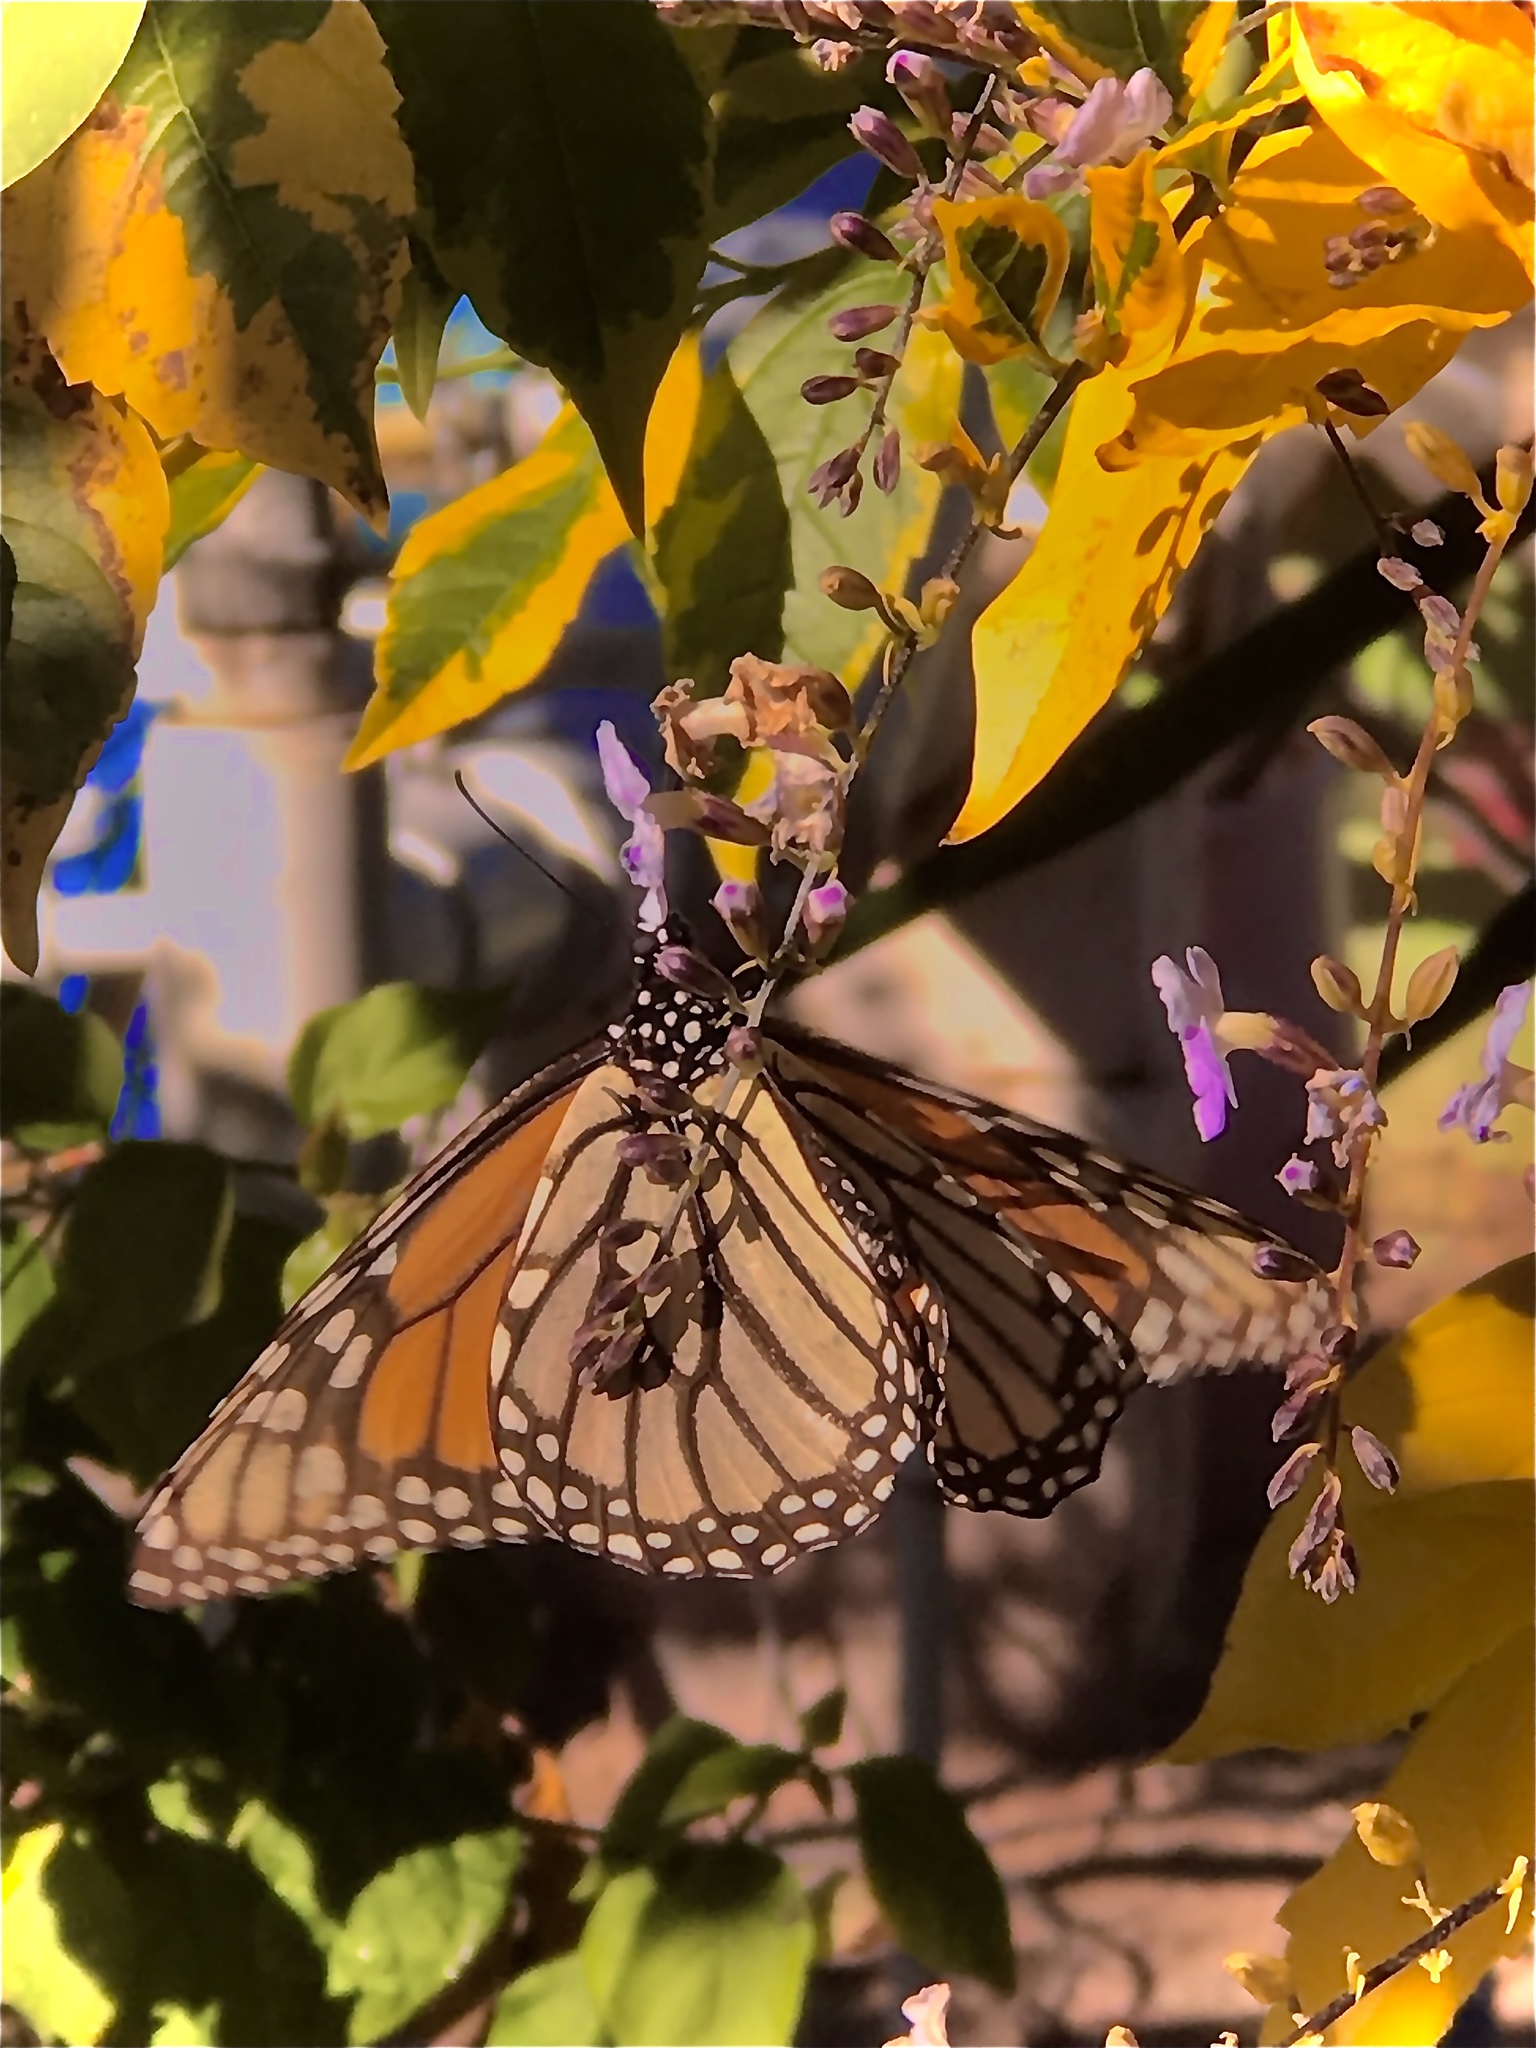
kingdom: Animalia
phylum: Arthropoda
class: Insecta
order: Lepidoptera
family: Nymphalidae
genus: Danaus
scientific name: Danaus plexippus
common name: Monarch
